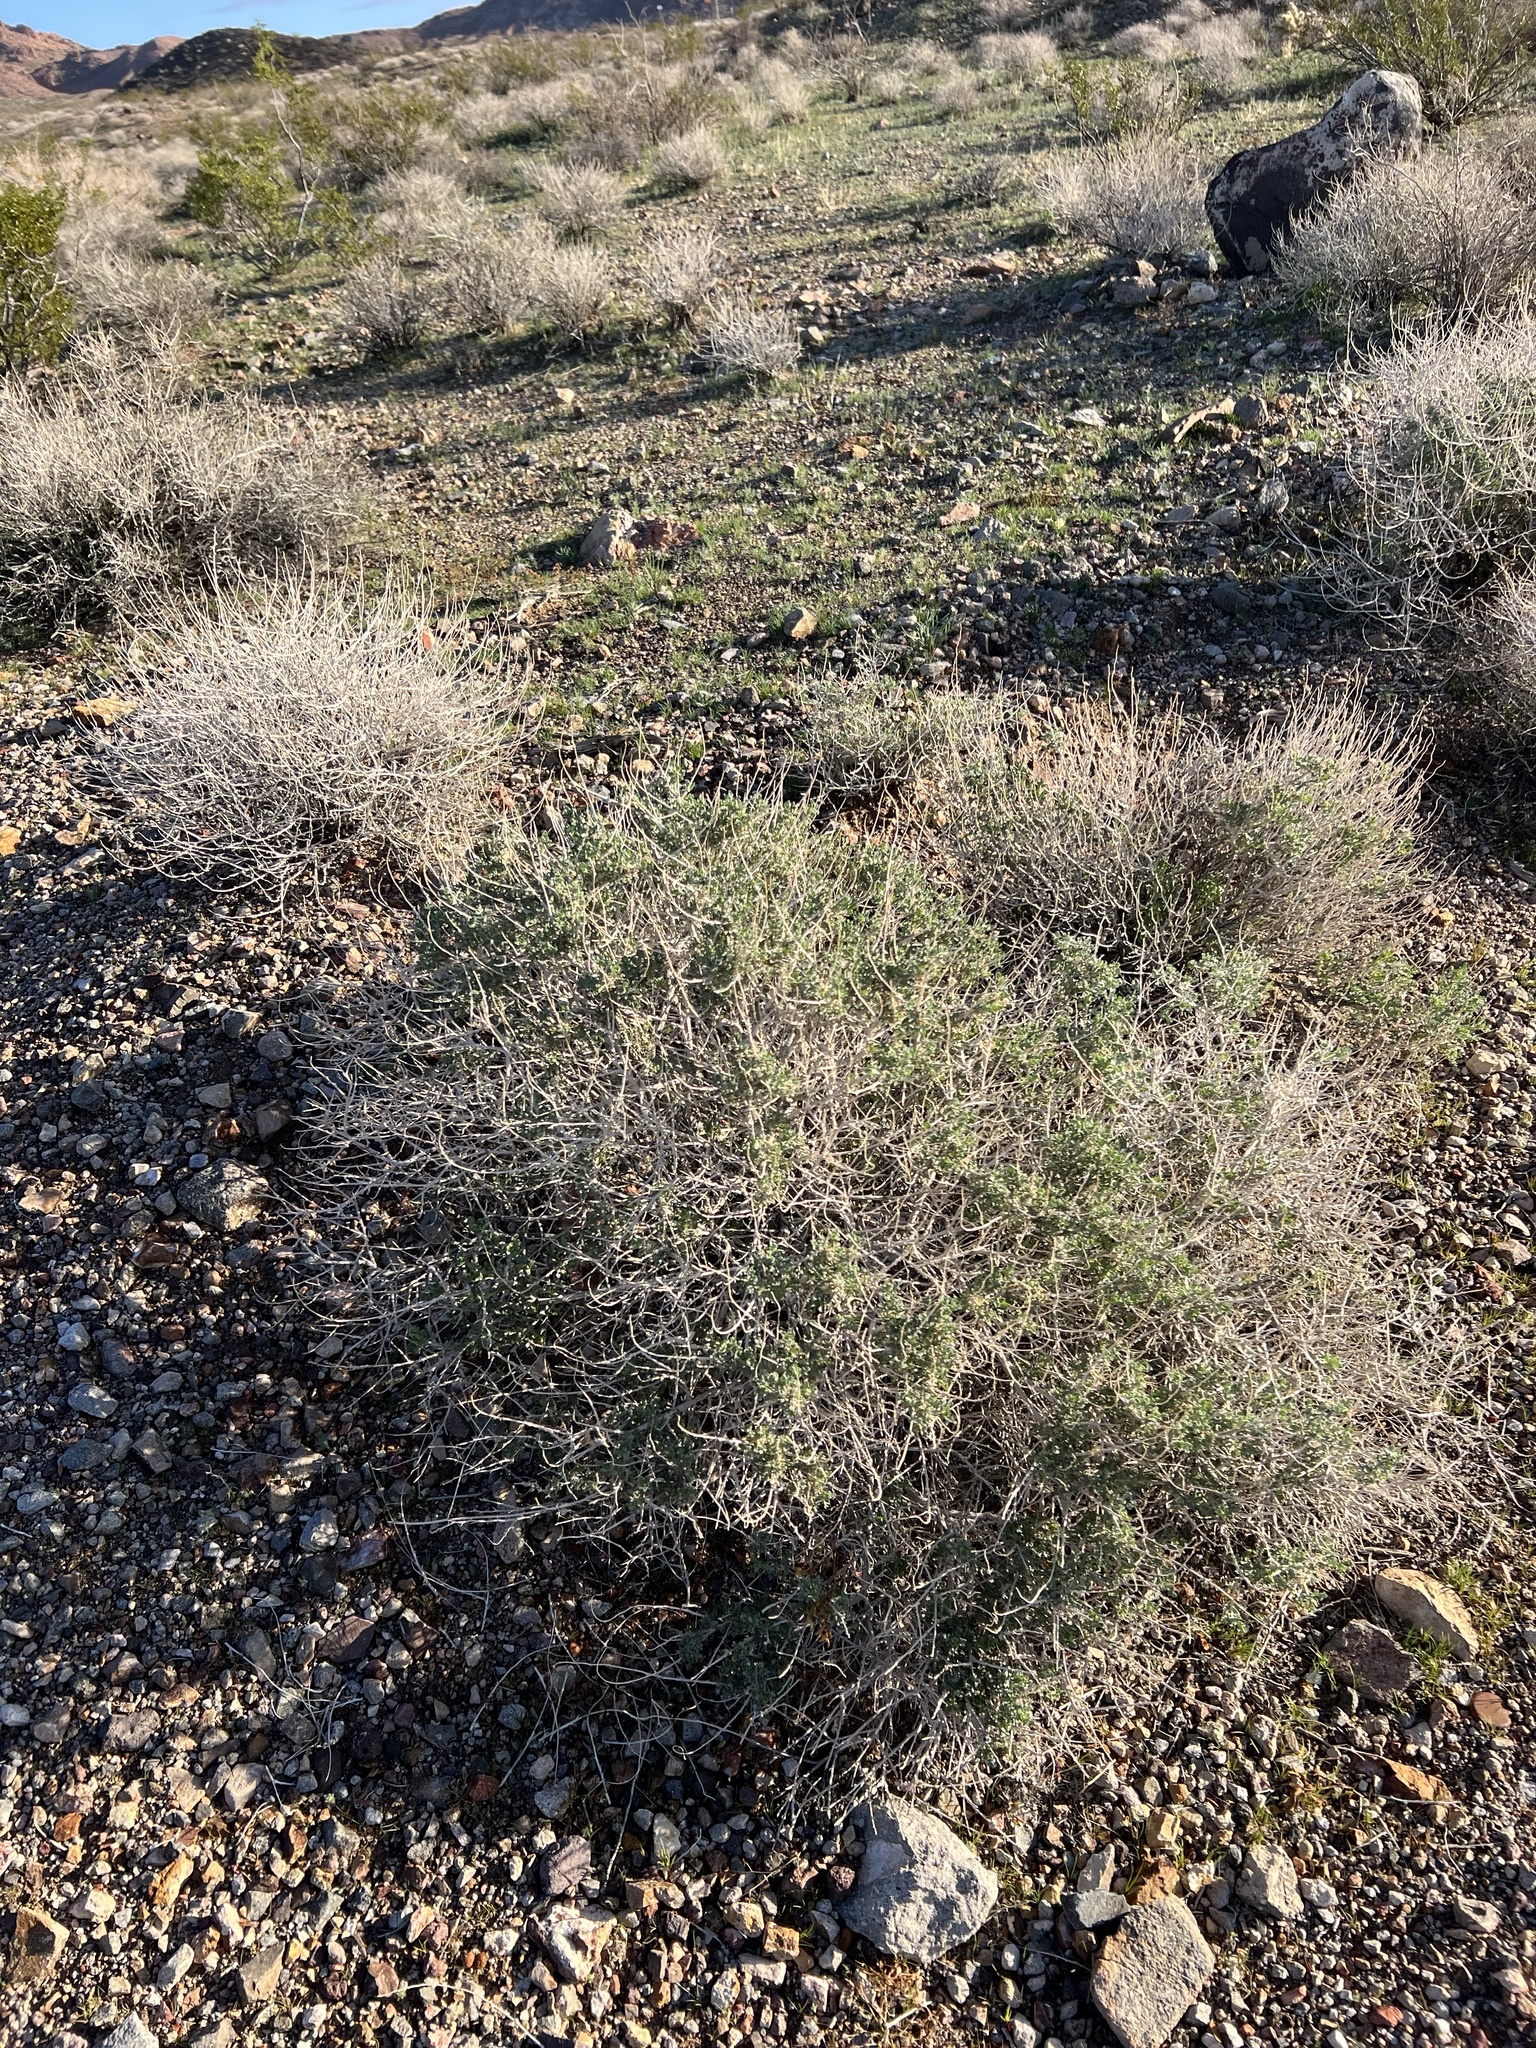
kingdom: Plantae
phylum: Tracheophyta
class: Magnoliopsida
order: Asterales
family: Asteraceae
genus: Ambrosia
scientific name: Ambrosia dumosa
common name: Bur-sage
